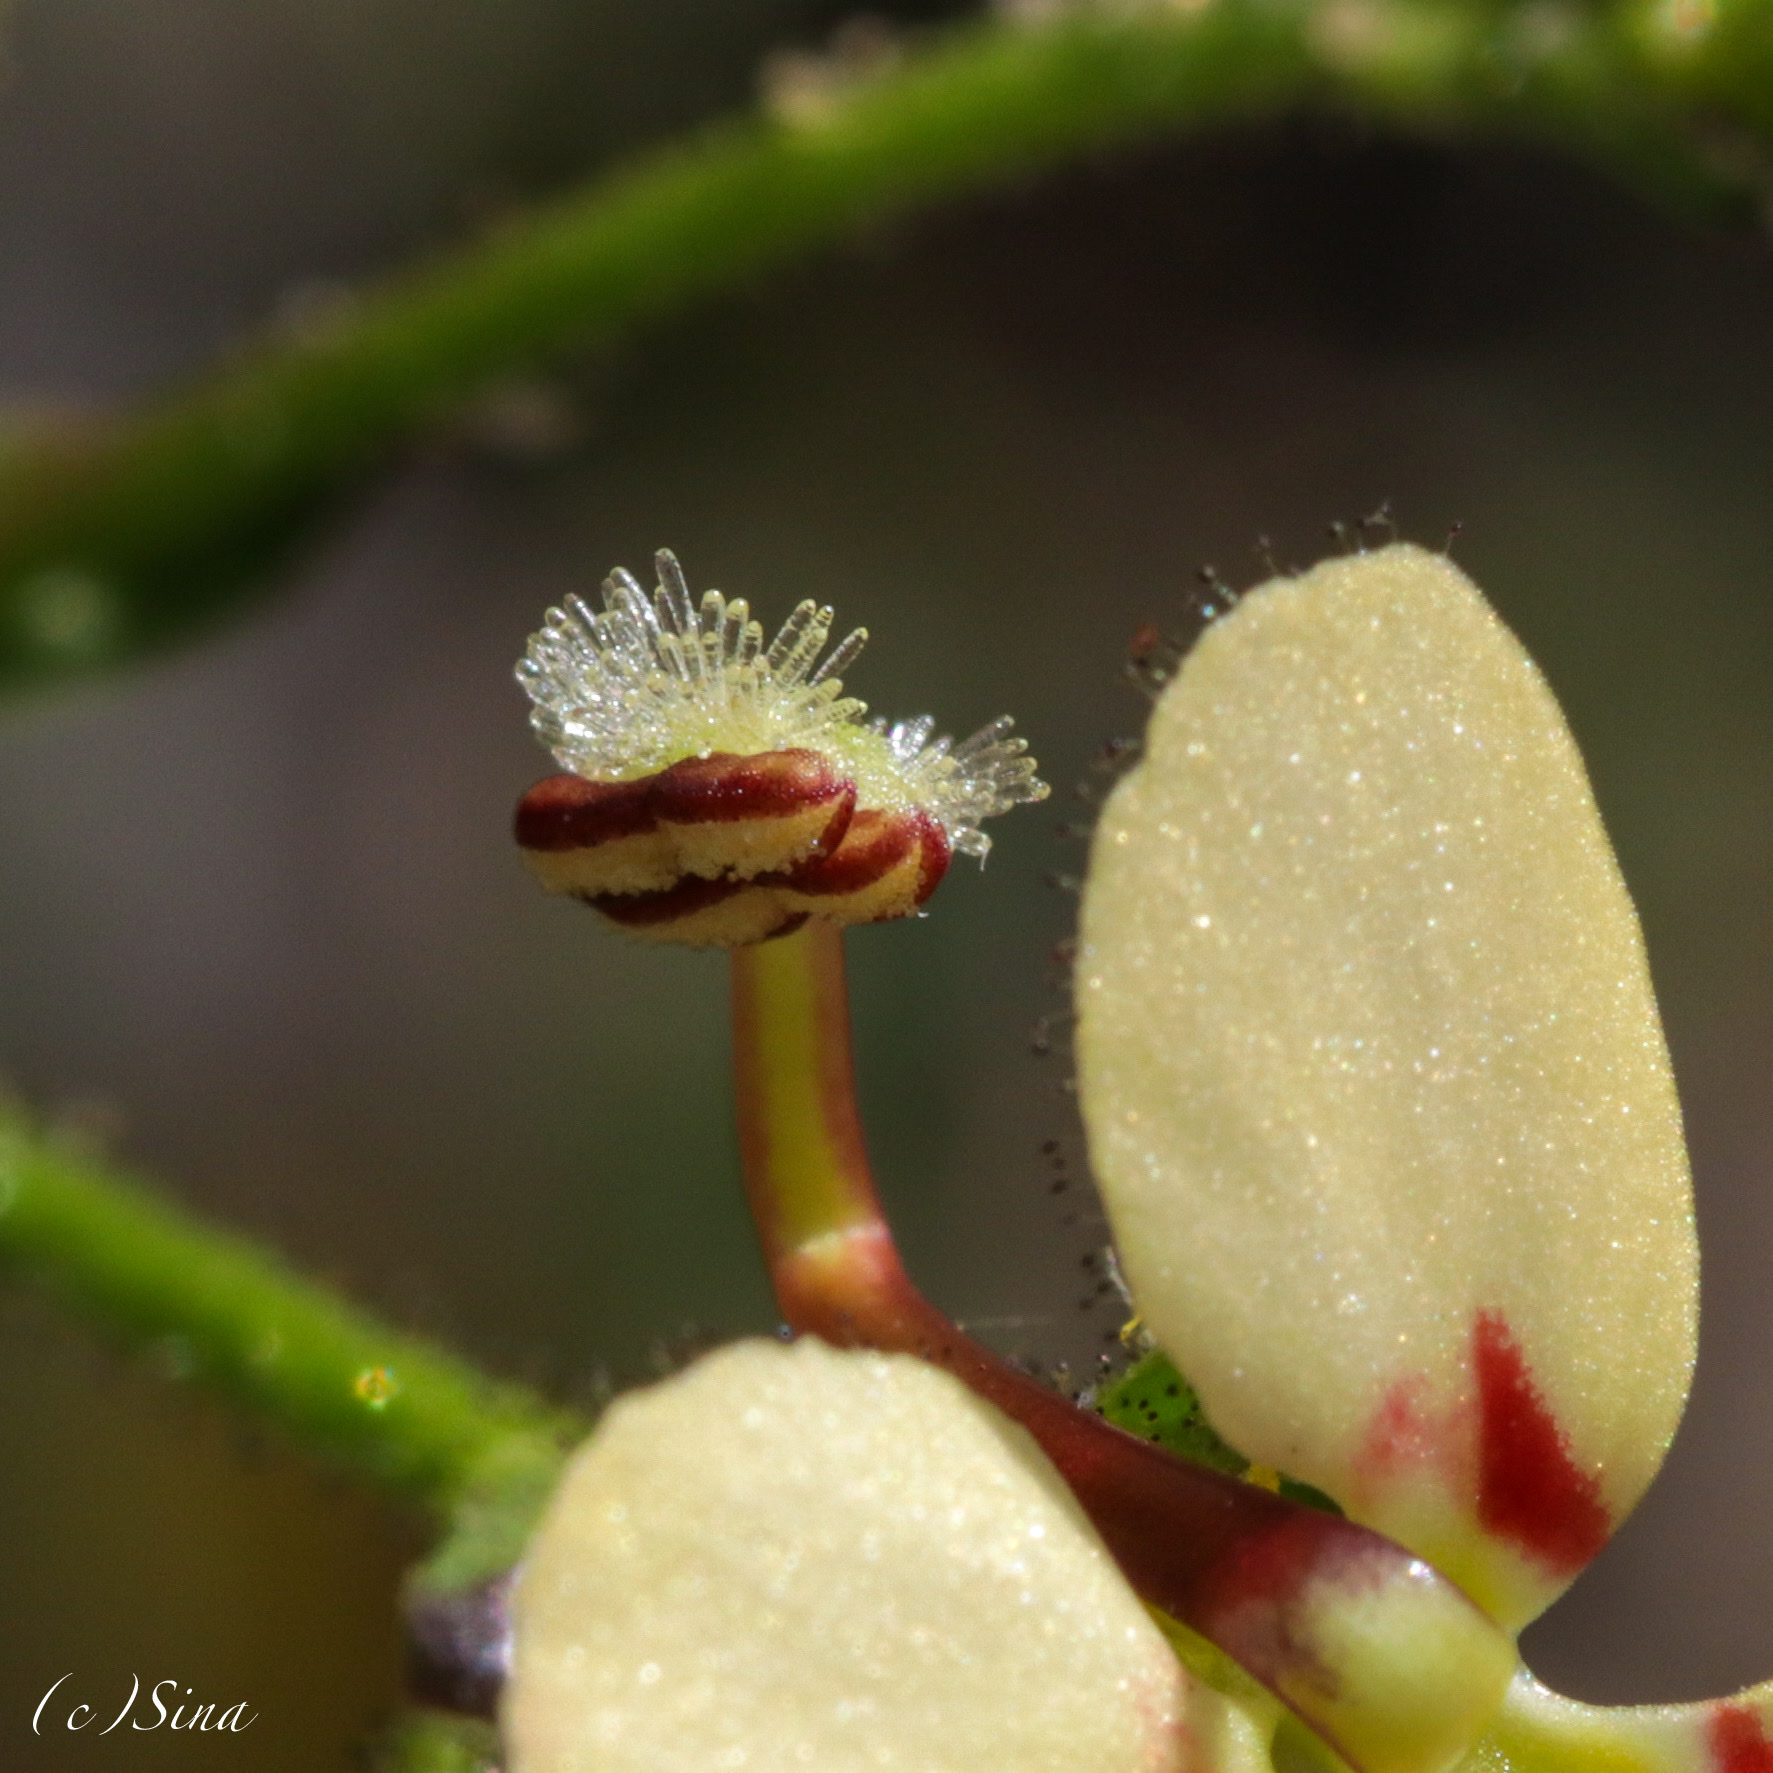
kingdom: Plantae
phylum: Tracheophyta
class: Magnoliopsida
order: Asterales
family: Stylidiaceae
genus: Stylidium
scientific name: Stylidium amphora
